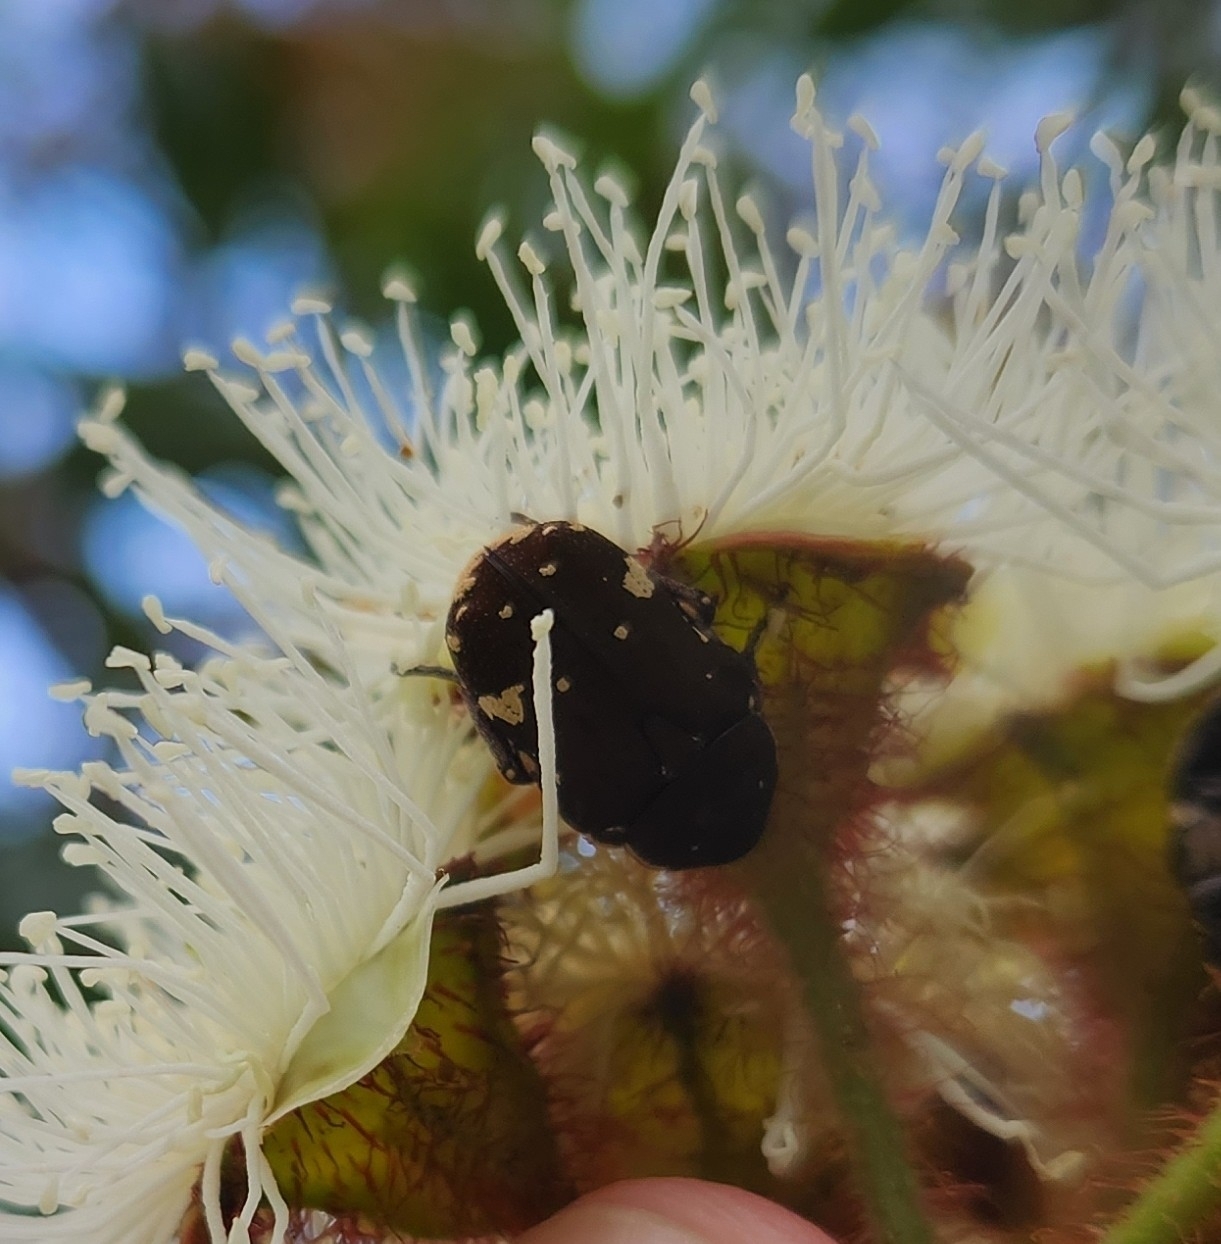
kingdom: Animalia
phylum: Arthropoda
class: Insecta
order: Coleoptera
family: Scarabaeidae
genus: Glycyphana
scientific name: Glycyphana stolata
